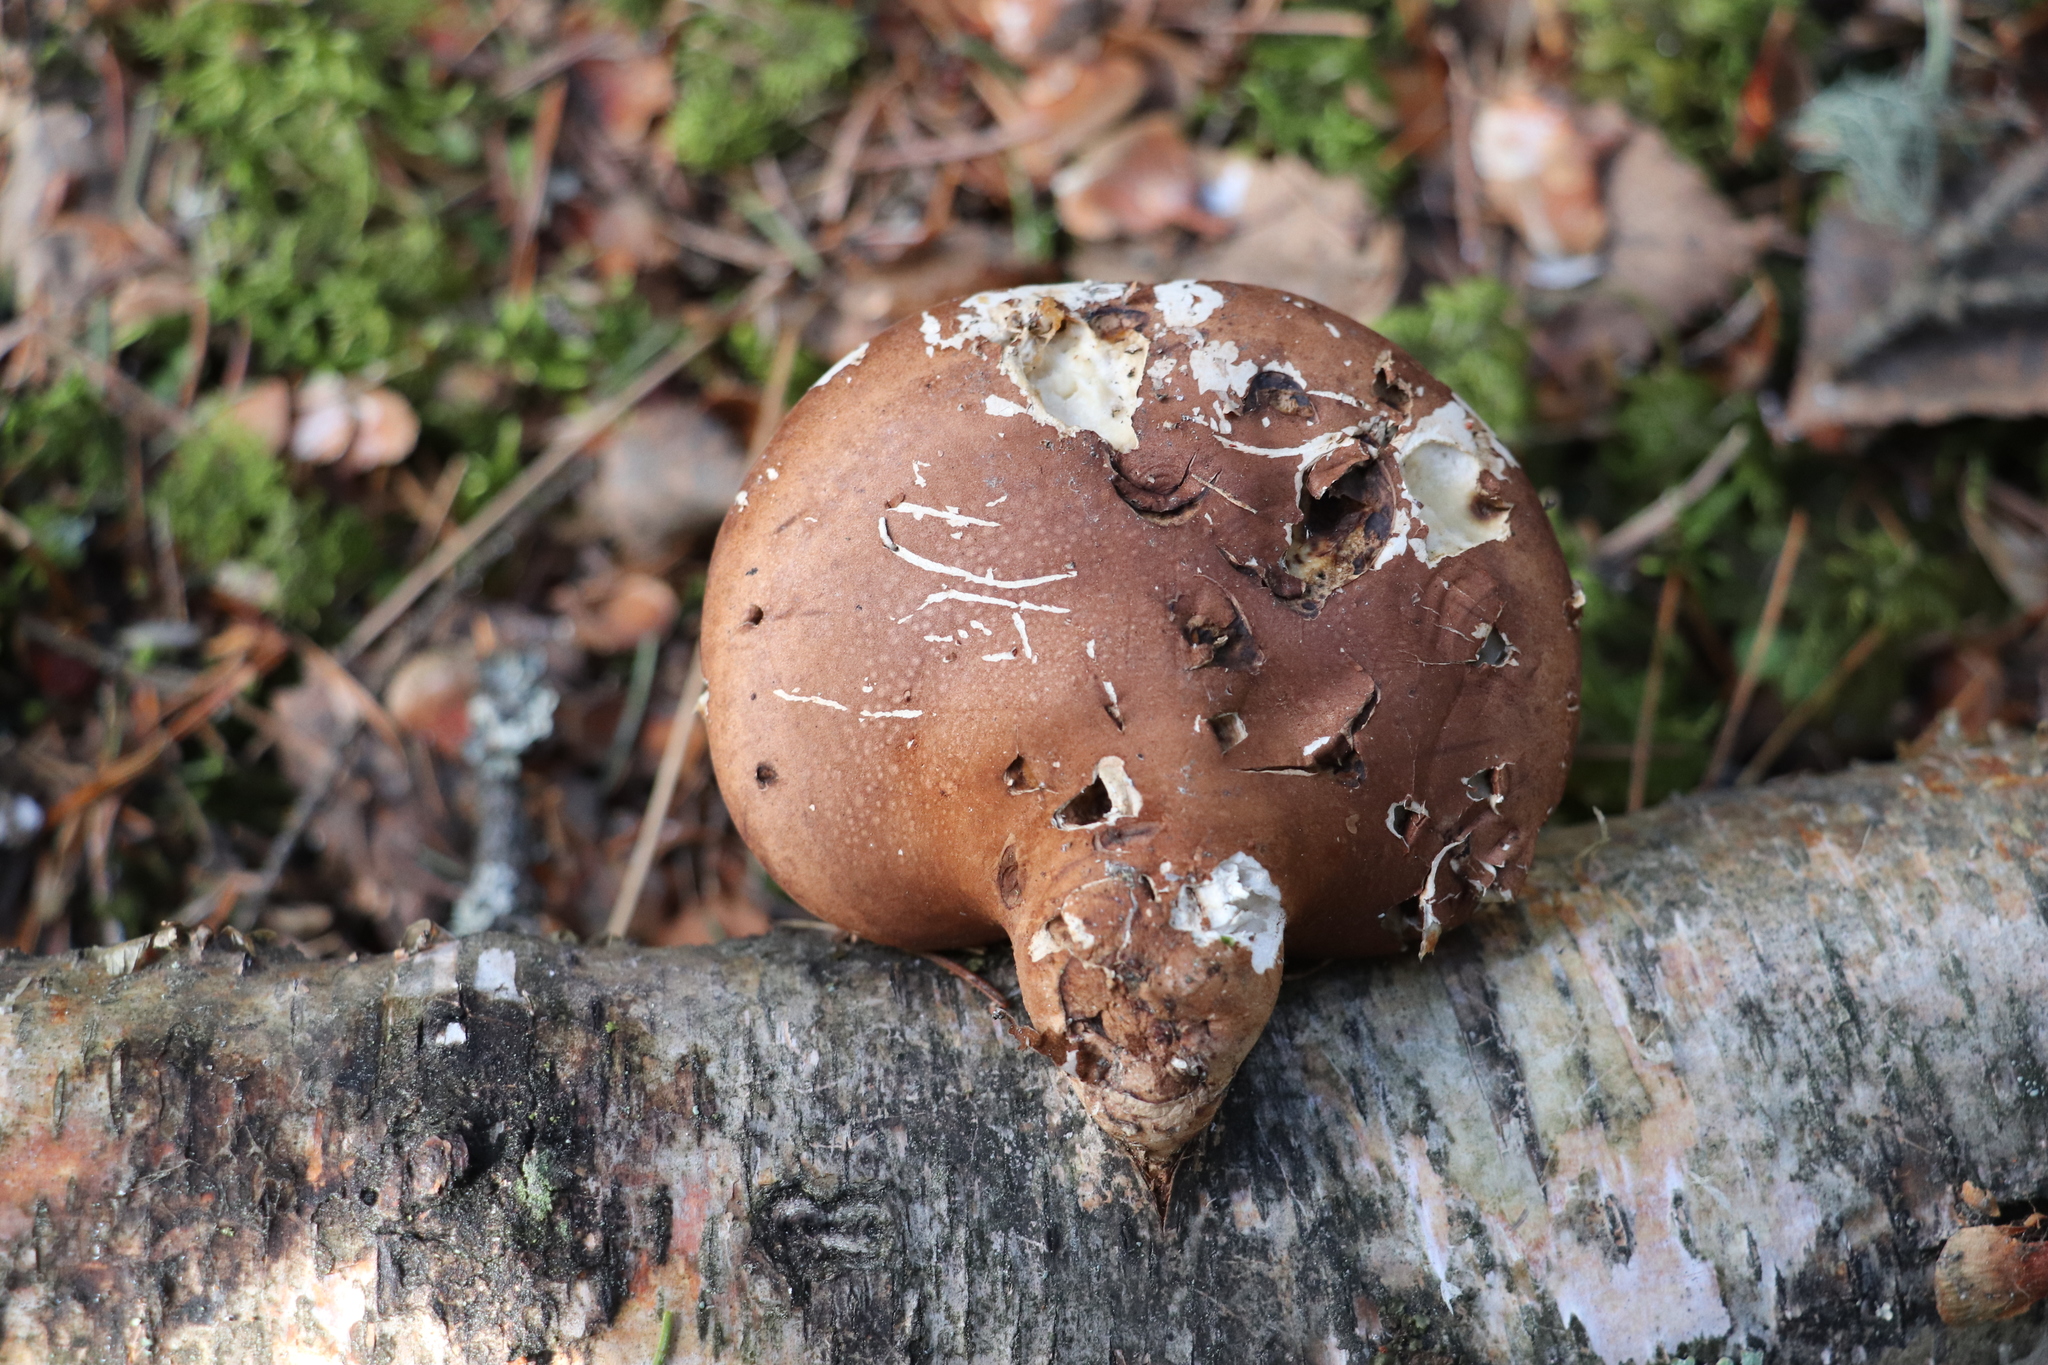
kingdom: Fungi
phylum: Basidiomycota
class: Agaricomycetes
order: Polyporales
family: Fomitopsidaceae
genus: Fomitopsis
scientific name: Fomitopsis betulina
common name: Birch polypore
